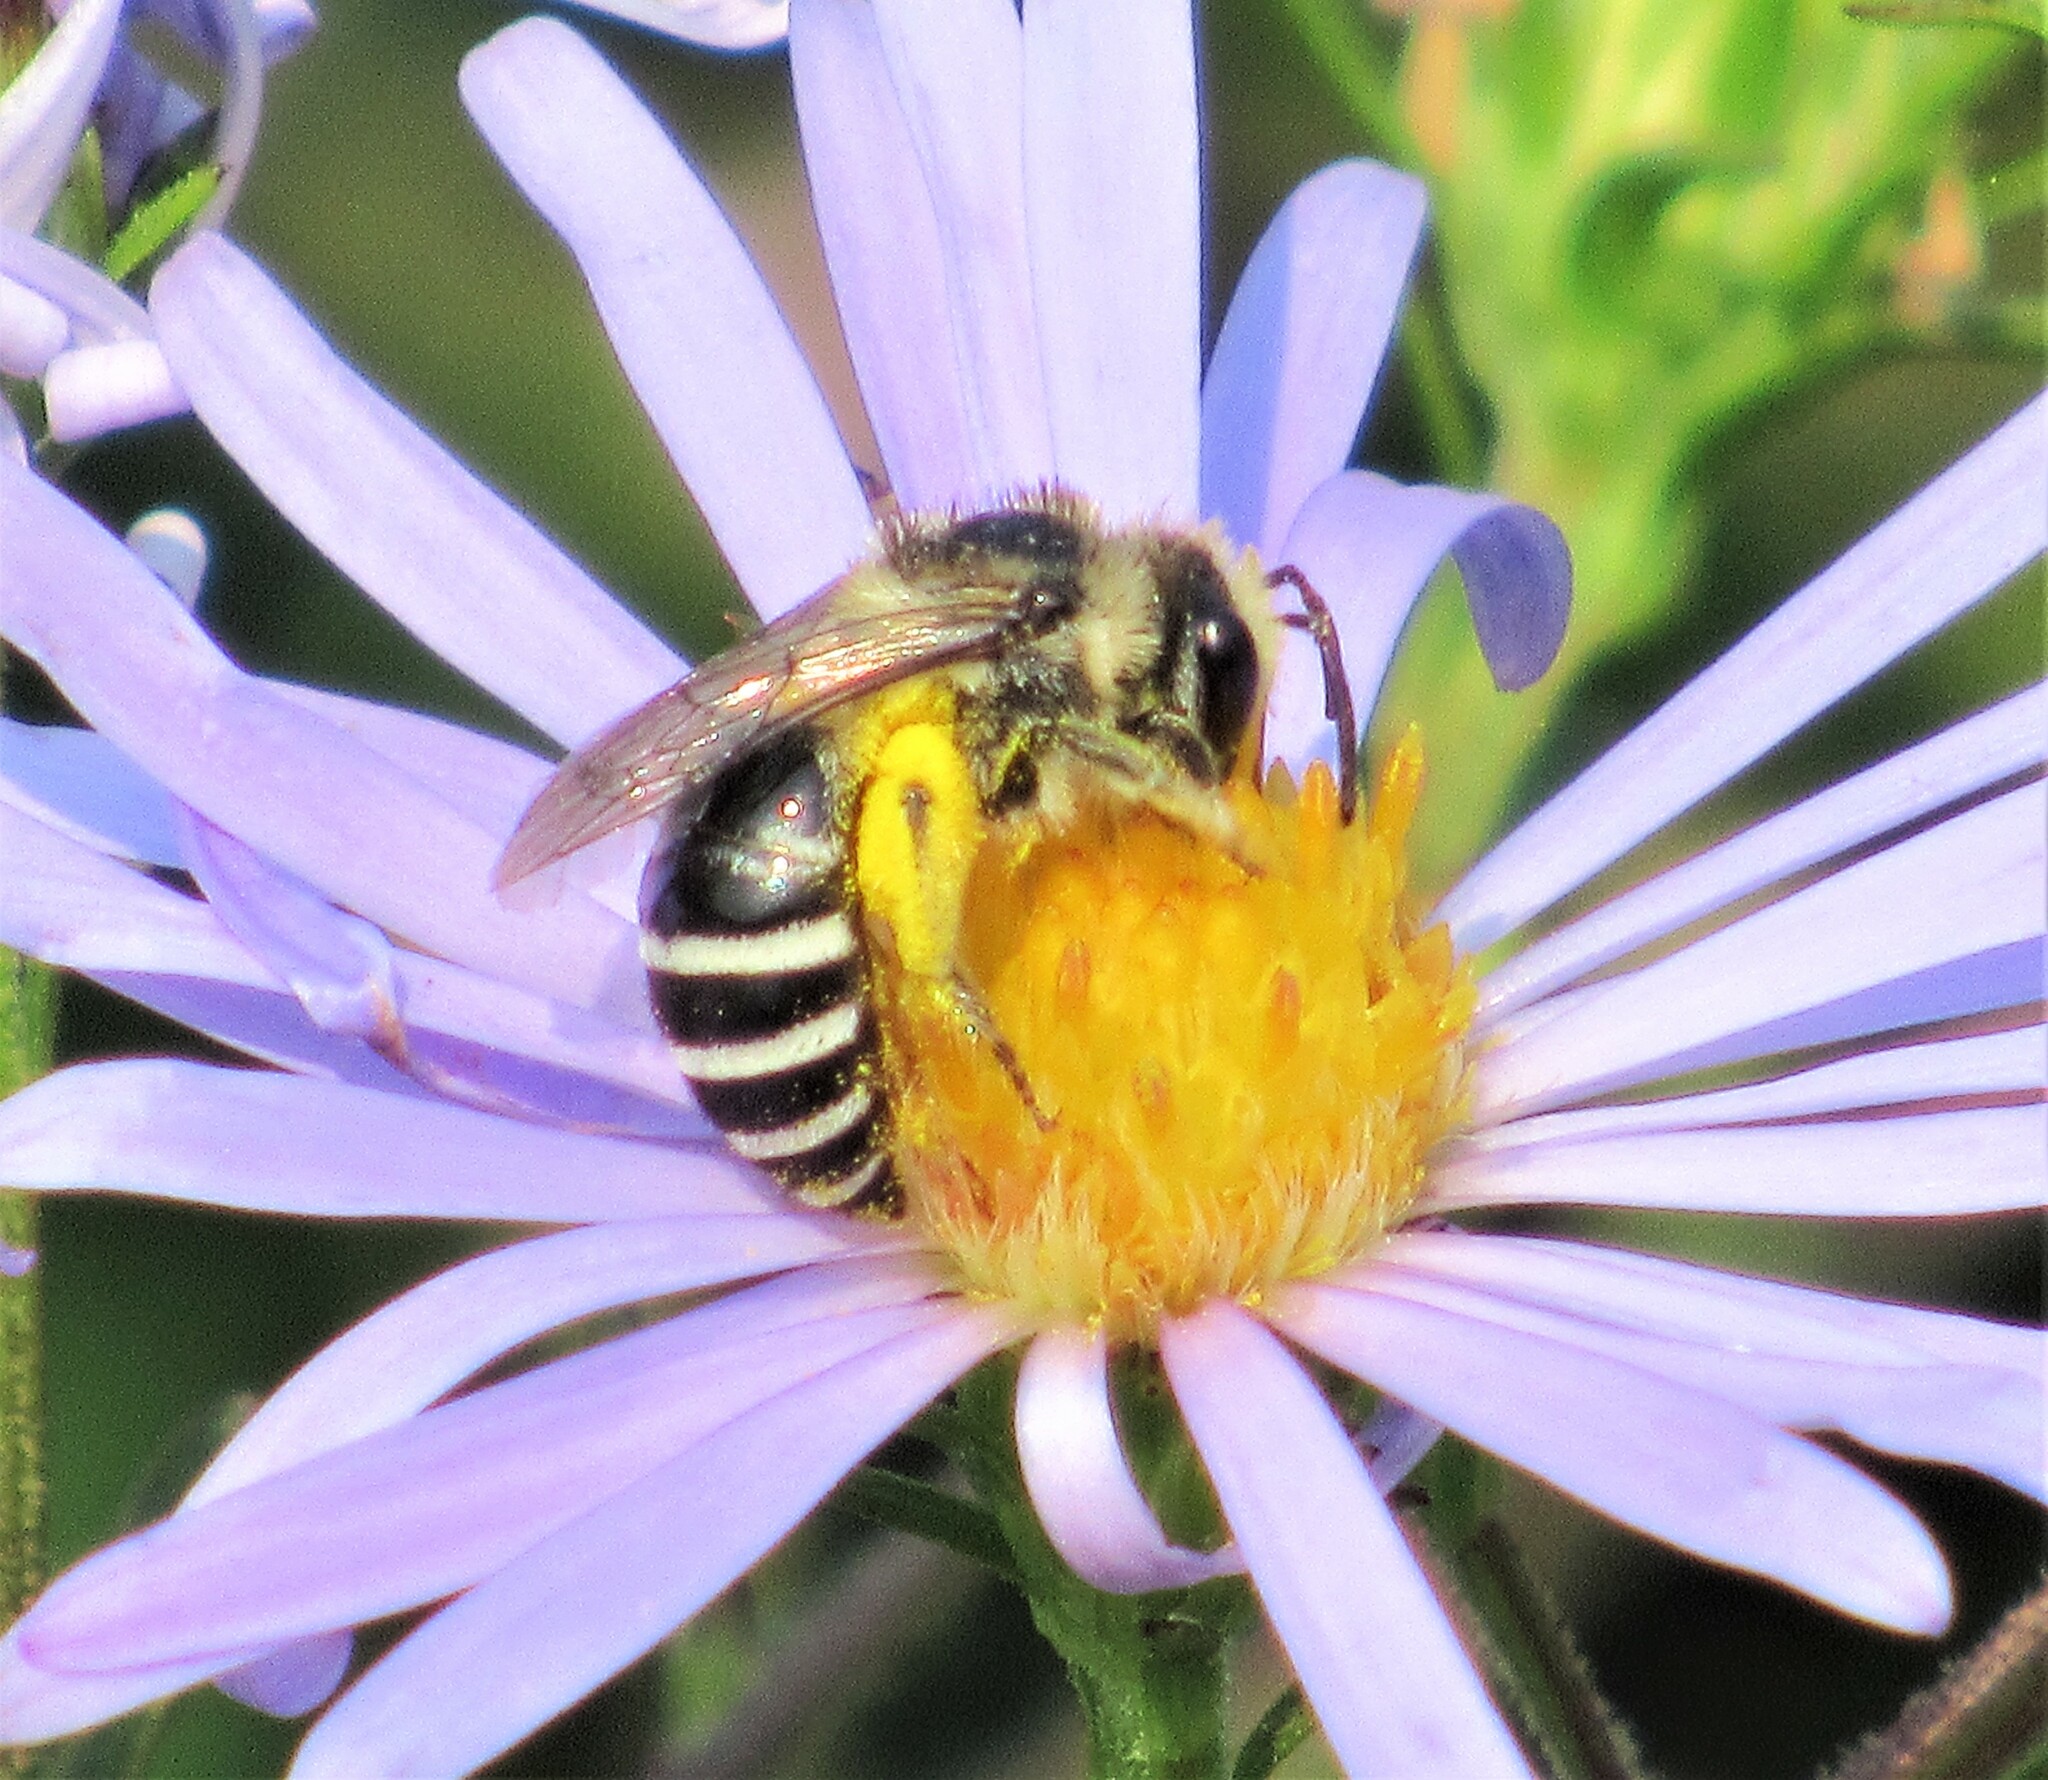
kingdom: Animalia
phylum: Arthropoda
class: Insecta
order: Hymenoptera
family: Colletidae
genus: Colletes
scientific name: Colletes
